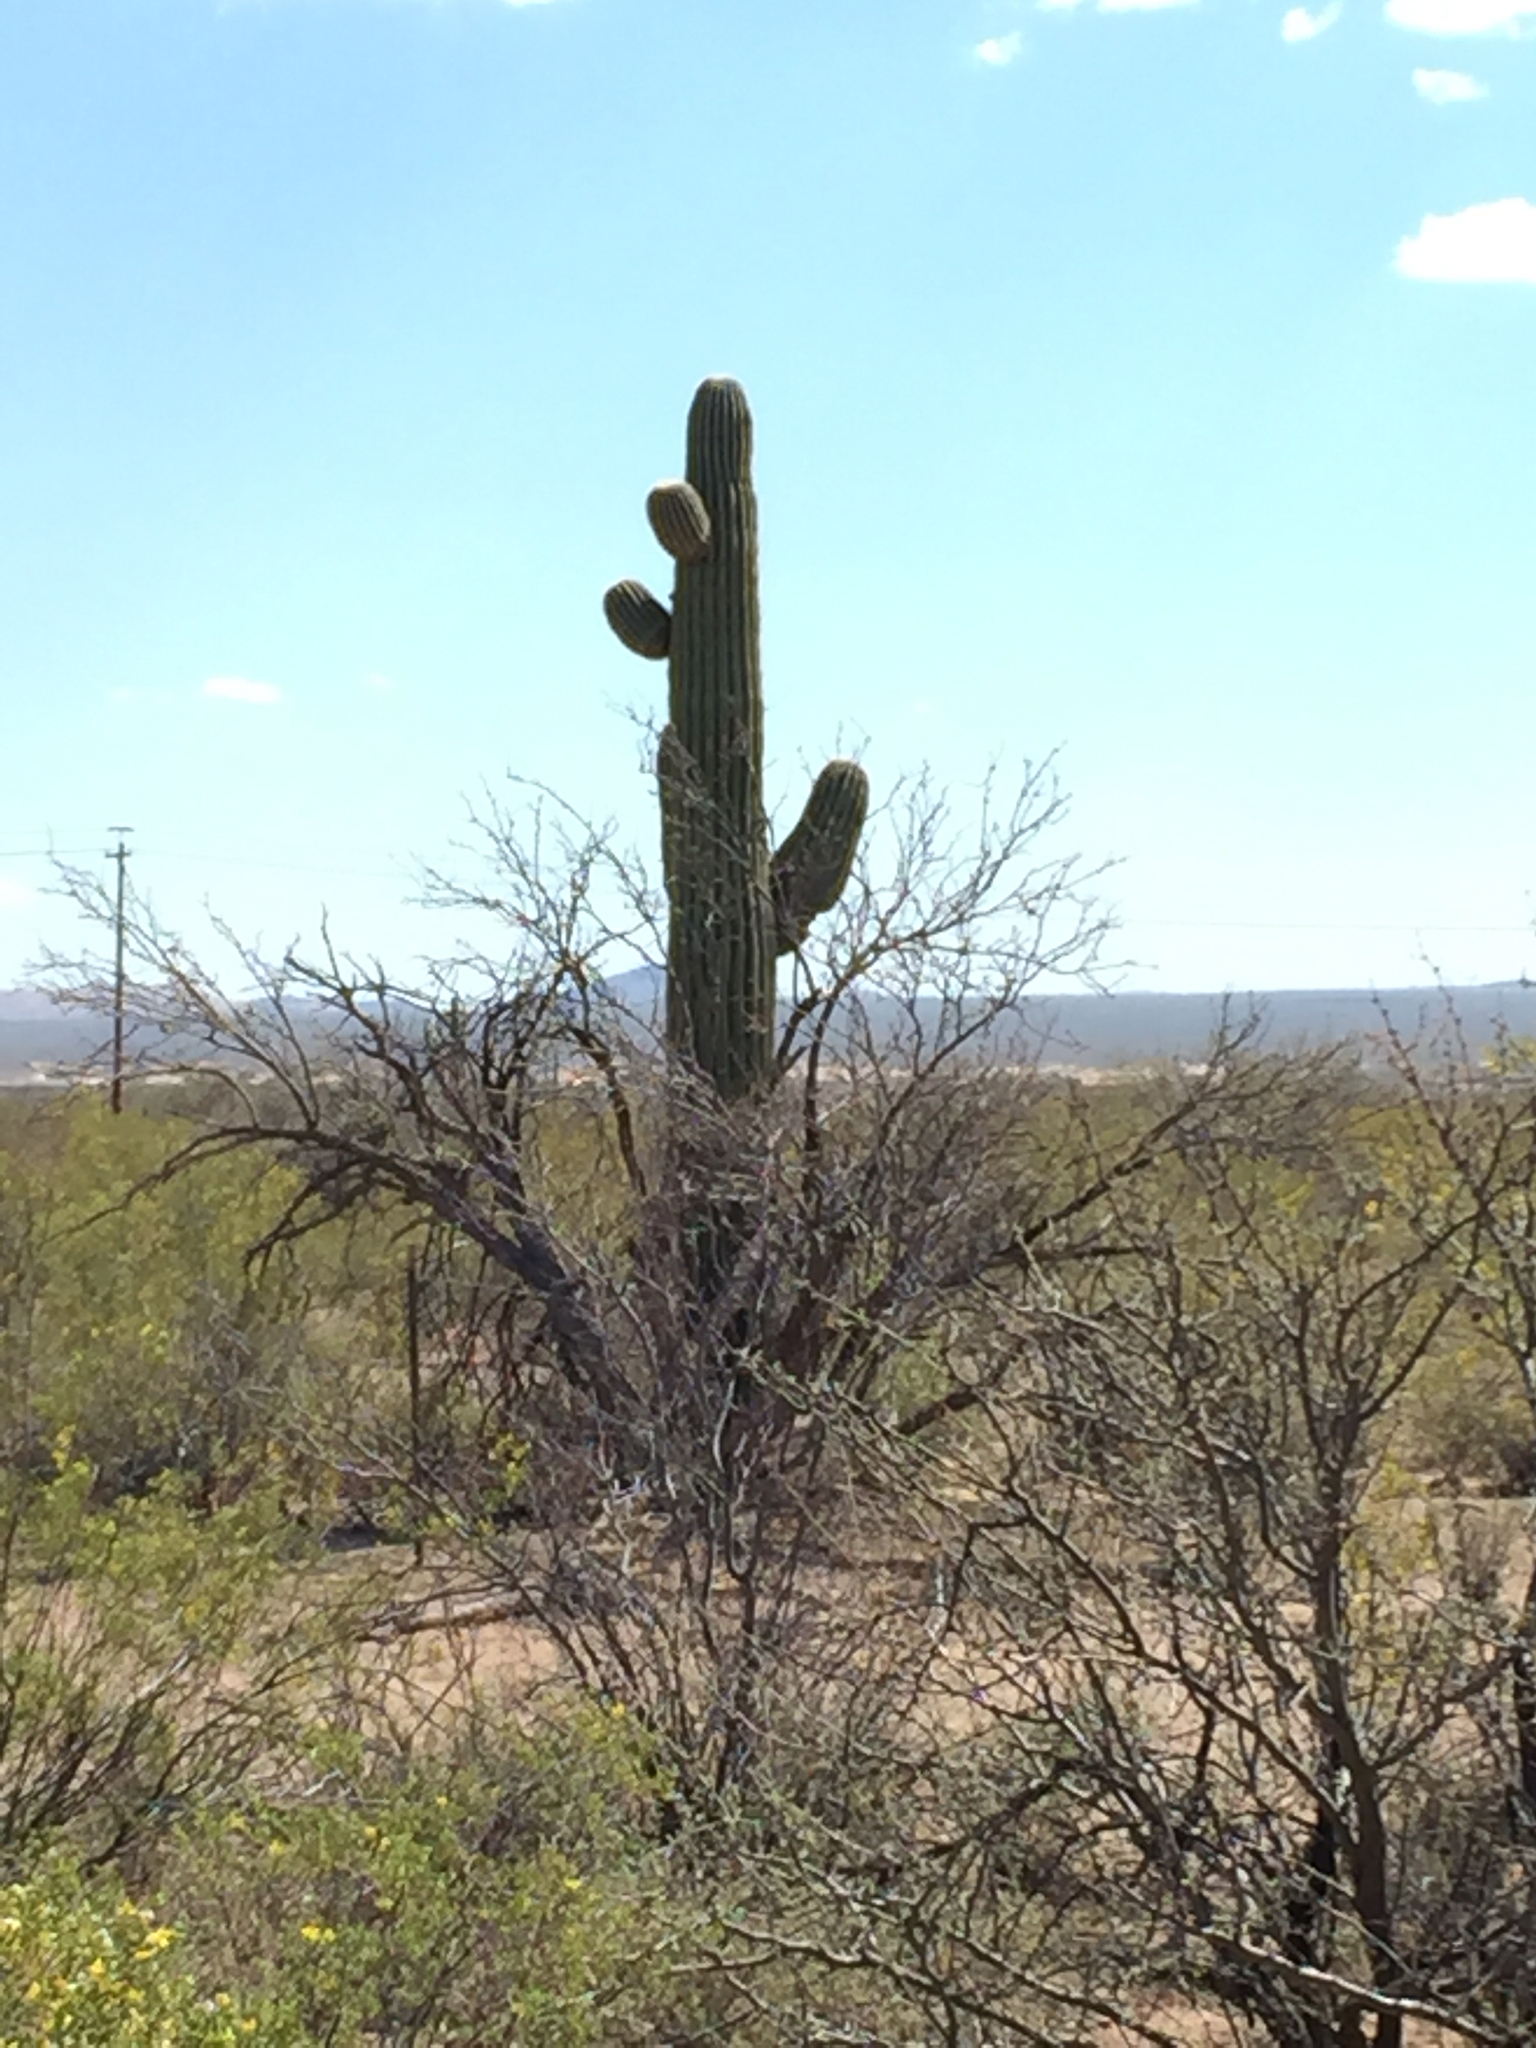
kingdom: Plantae
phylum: Tracheophyta
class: Magnoliopsida
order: Caryophyllales
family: Cactaceae
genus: Carnegiea
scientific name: Carnegiea gigantea
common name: Saguaro
